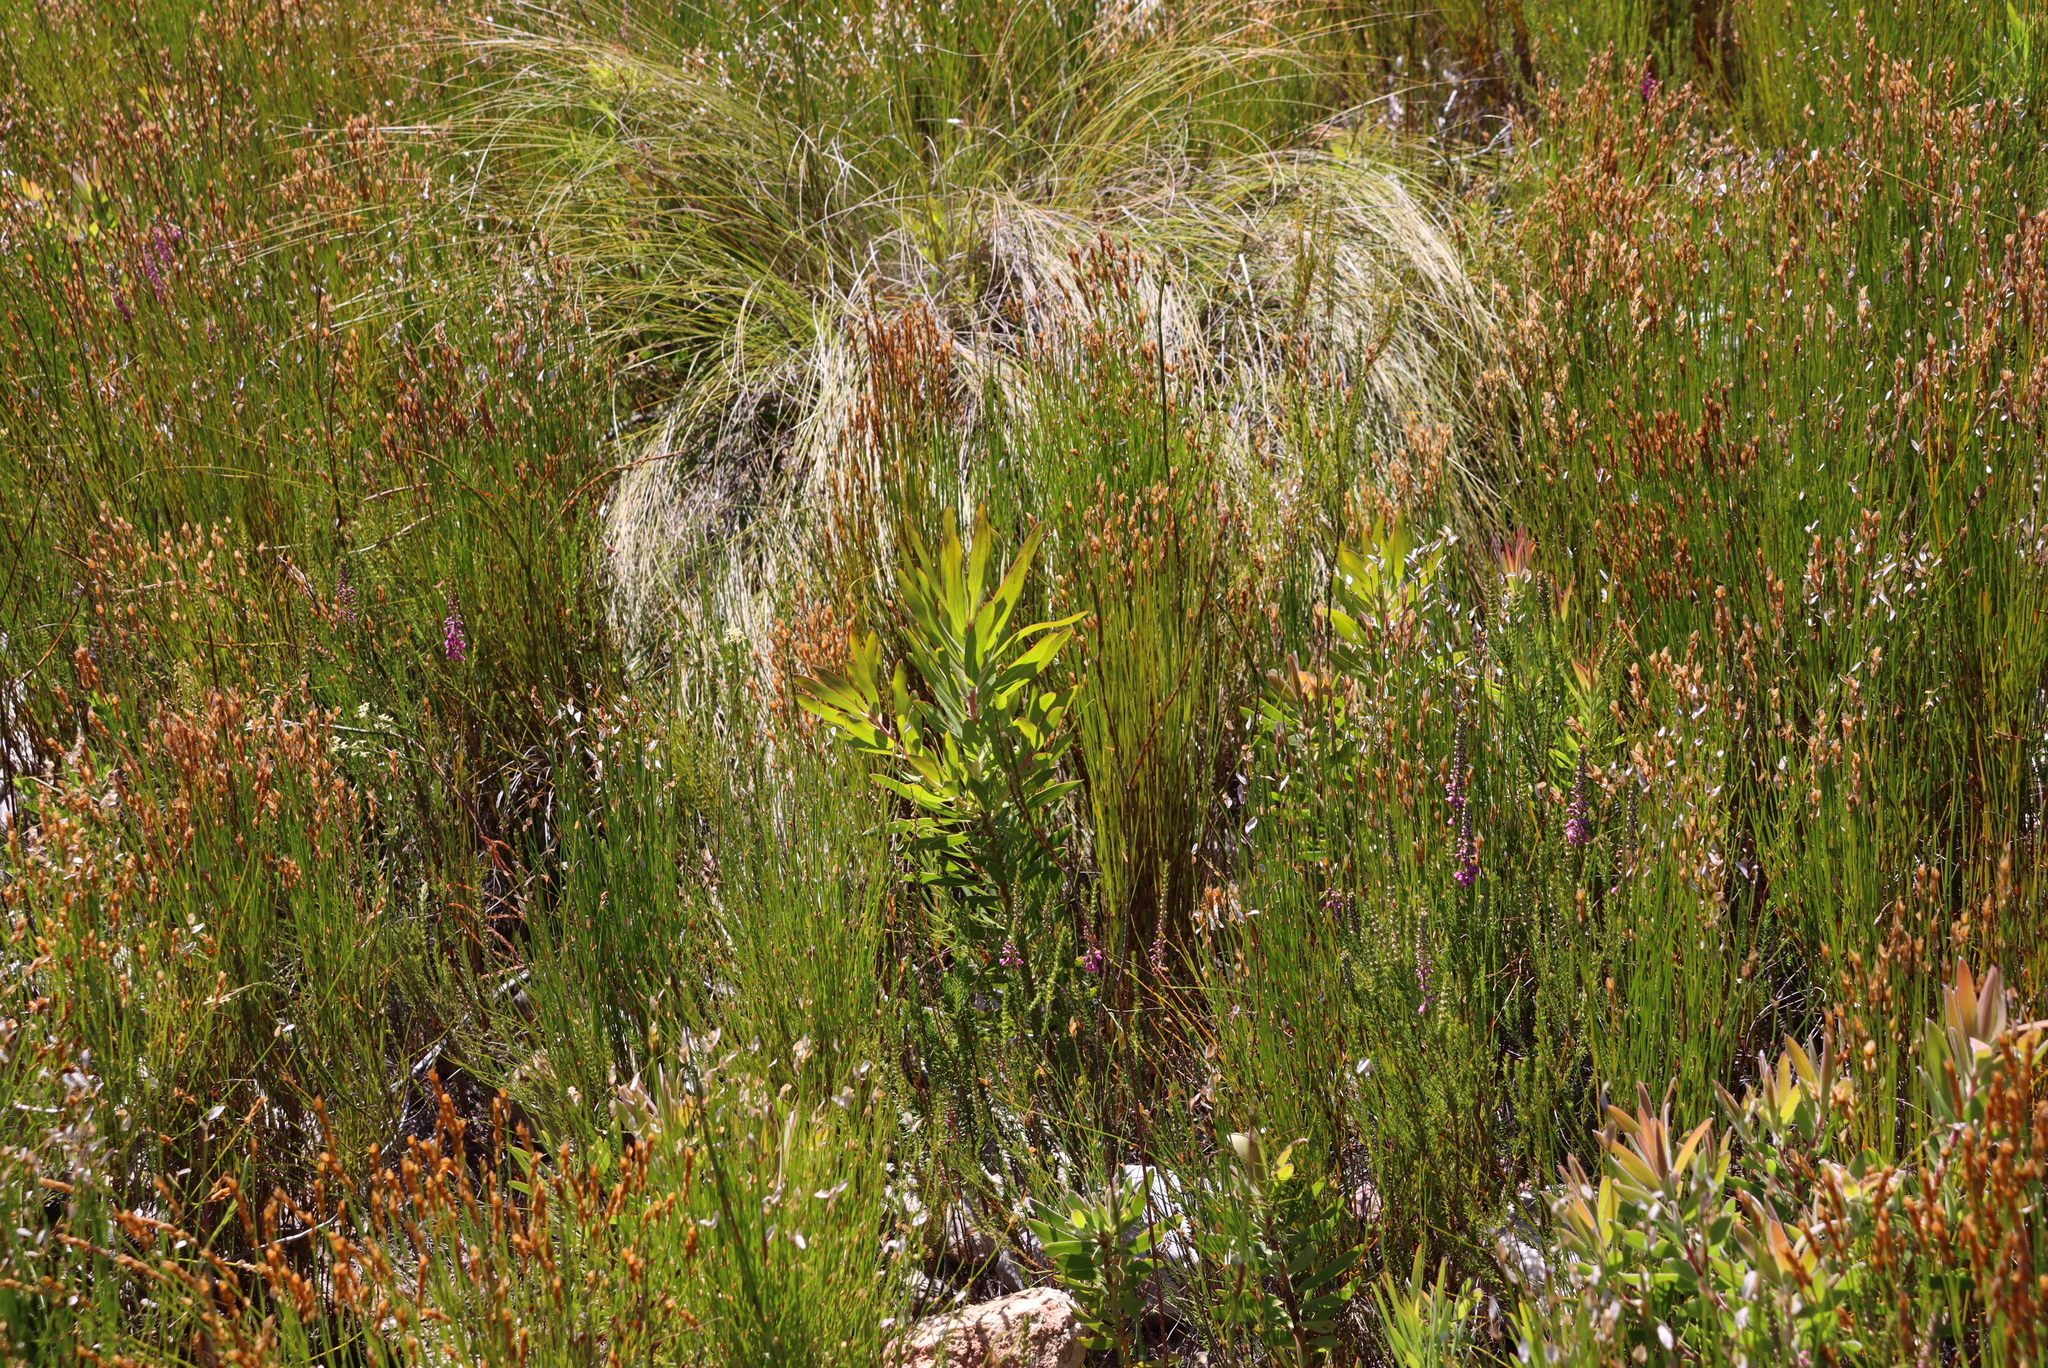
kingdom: Plantae
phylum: Tracheophyta
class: Magnoliopsida
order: Proteales
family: Proteaceae
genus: Protea
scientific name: Protea laurifolia
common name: Grey-leaf sugarbsh
